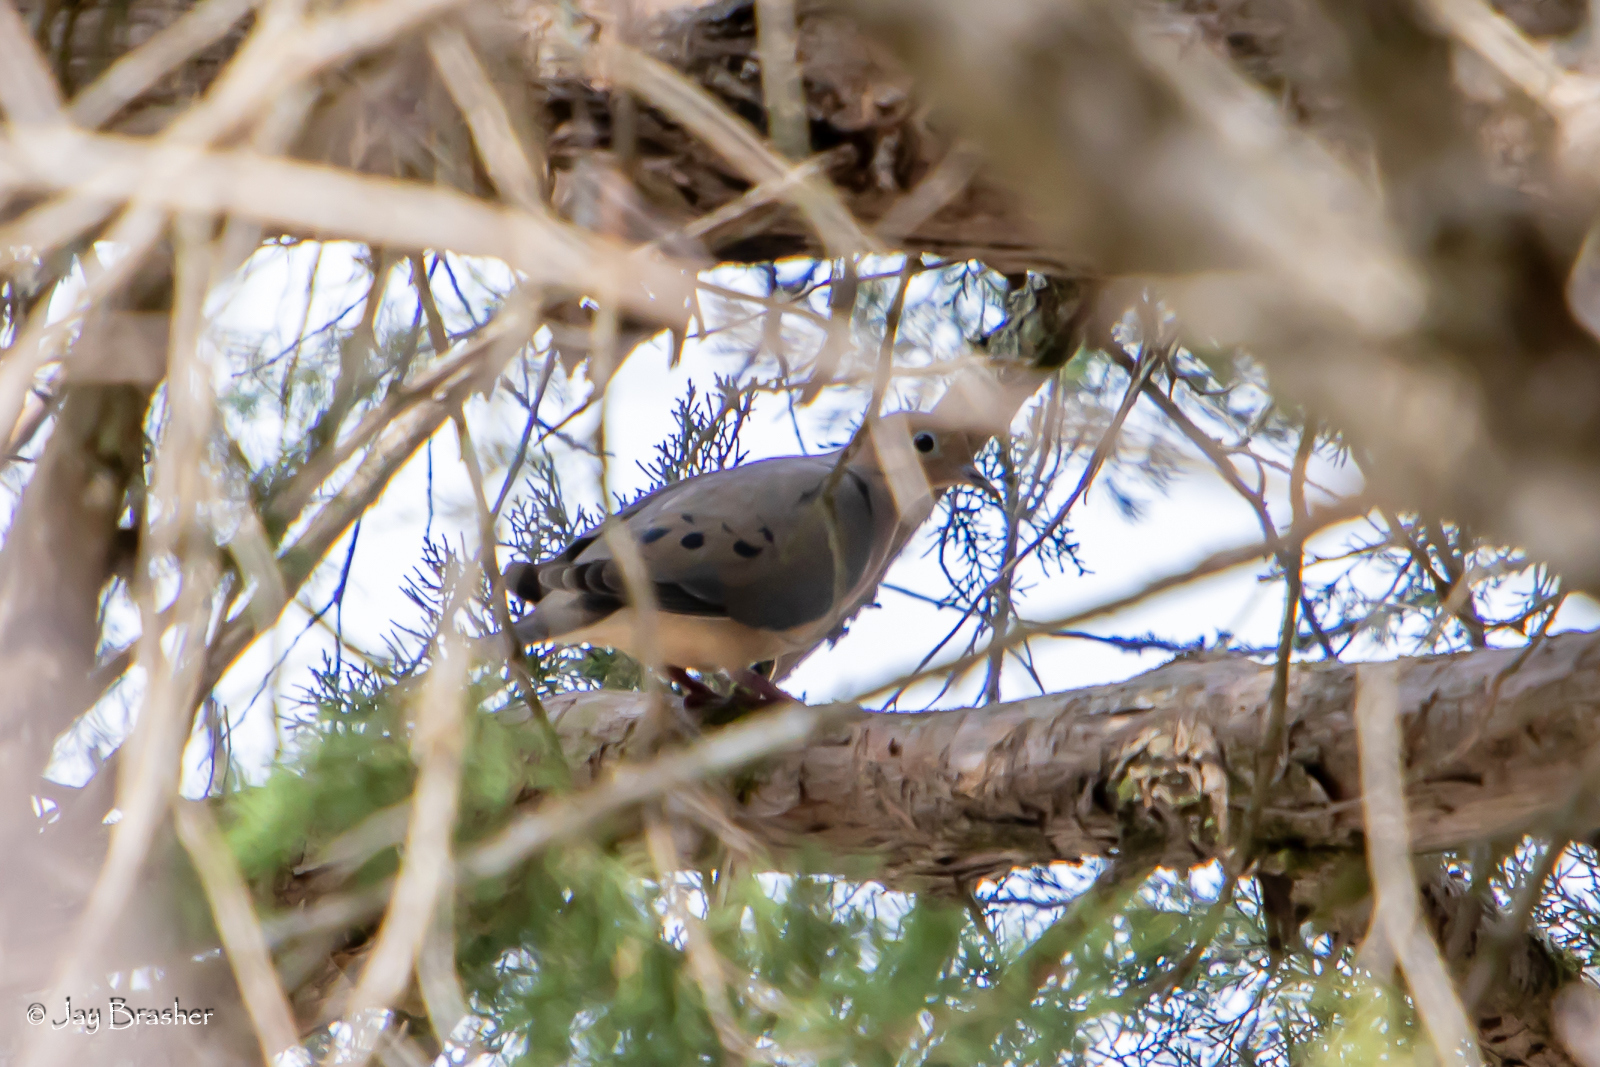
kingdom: Animalia
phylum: Chordata
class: Aves
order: Columbiformes
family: Columbidae
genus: Zenaida
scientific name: Zenaida macroura
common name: Mourning dove
